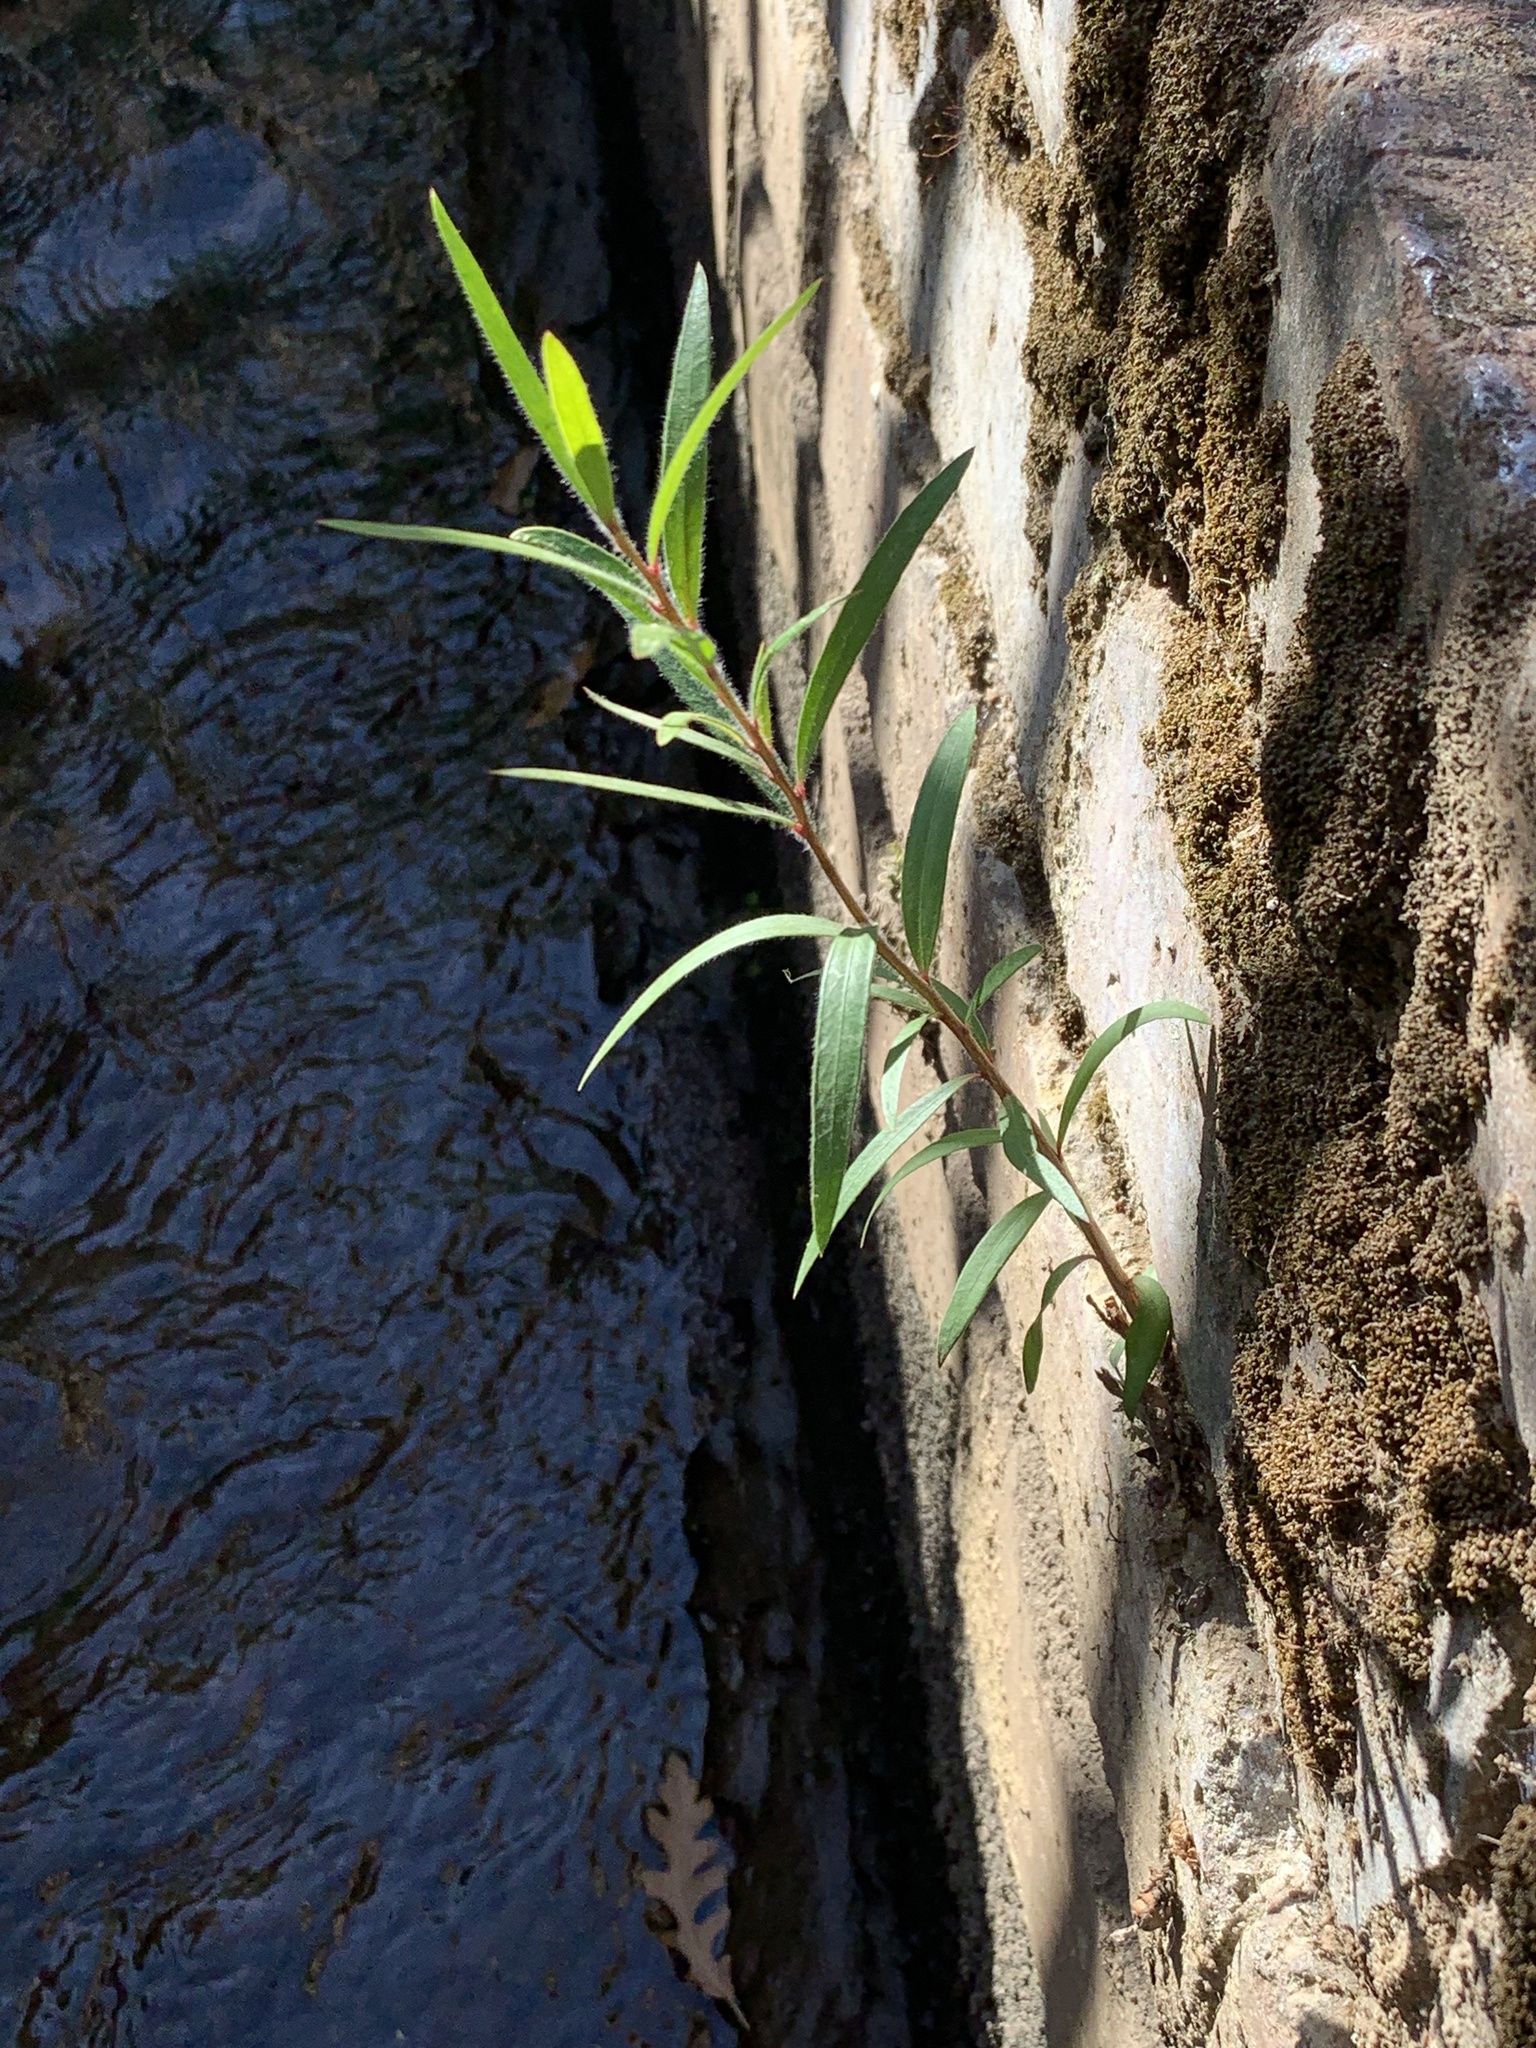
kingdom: Plantae
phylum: Tracheophyta
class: Magnoliopsida
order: Myrtales
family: Myrtaceae
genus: Callistemon
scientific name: Callistemon viminalis
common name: Drooping bottlebrush
